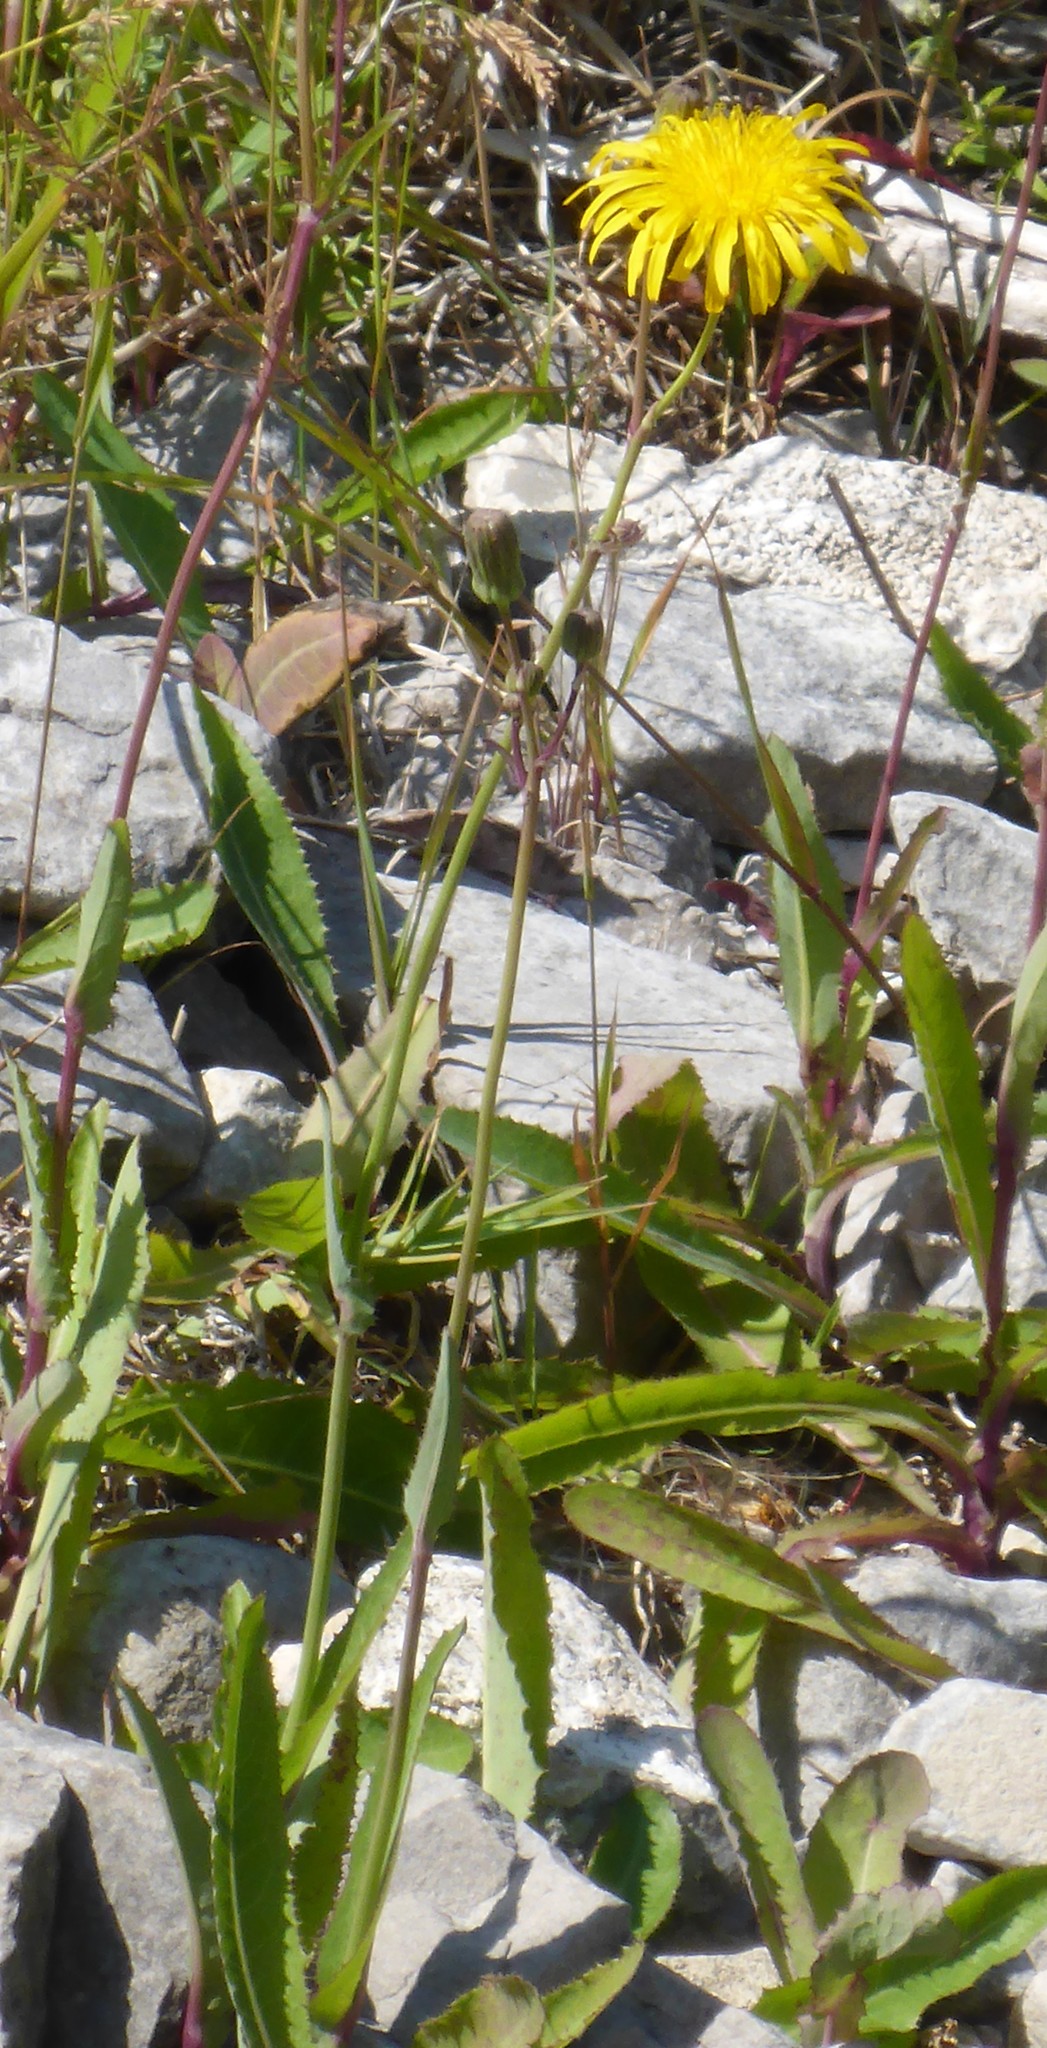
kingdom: Plantae
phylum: Tracheophyta
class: Magnoliopsida
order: Asterales
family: Asteraceae
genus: Sonchus
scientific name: Sonchus arvensis
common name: Perennial sow-thistle
